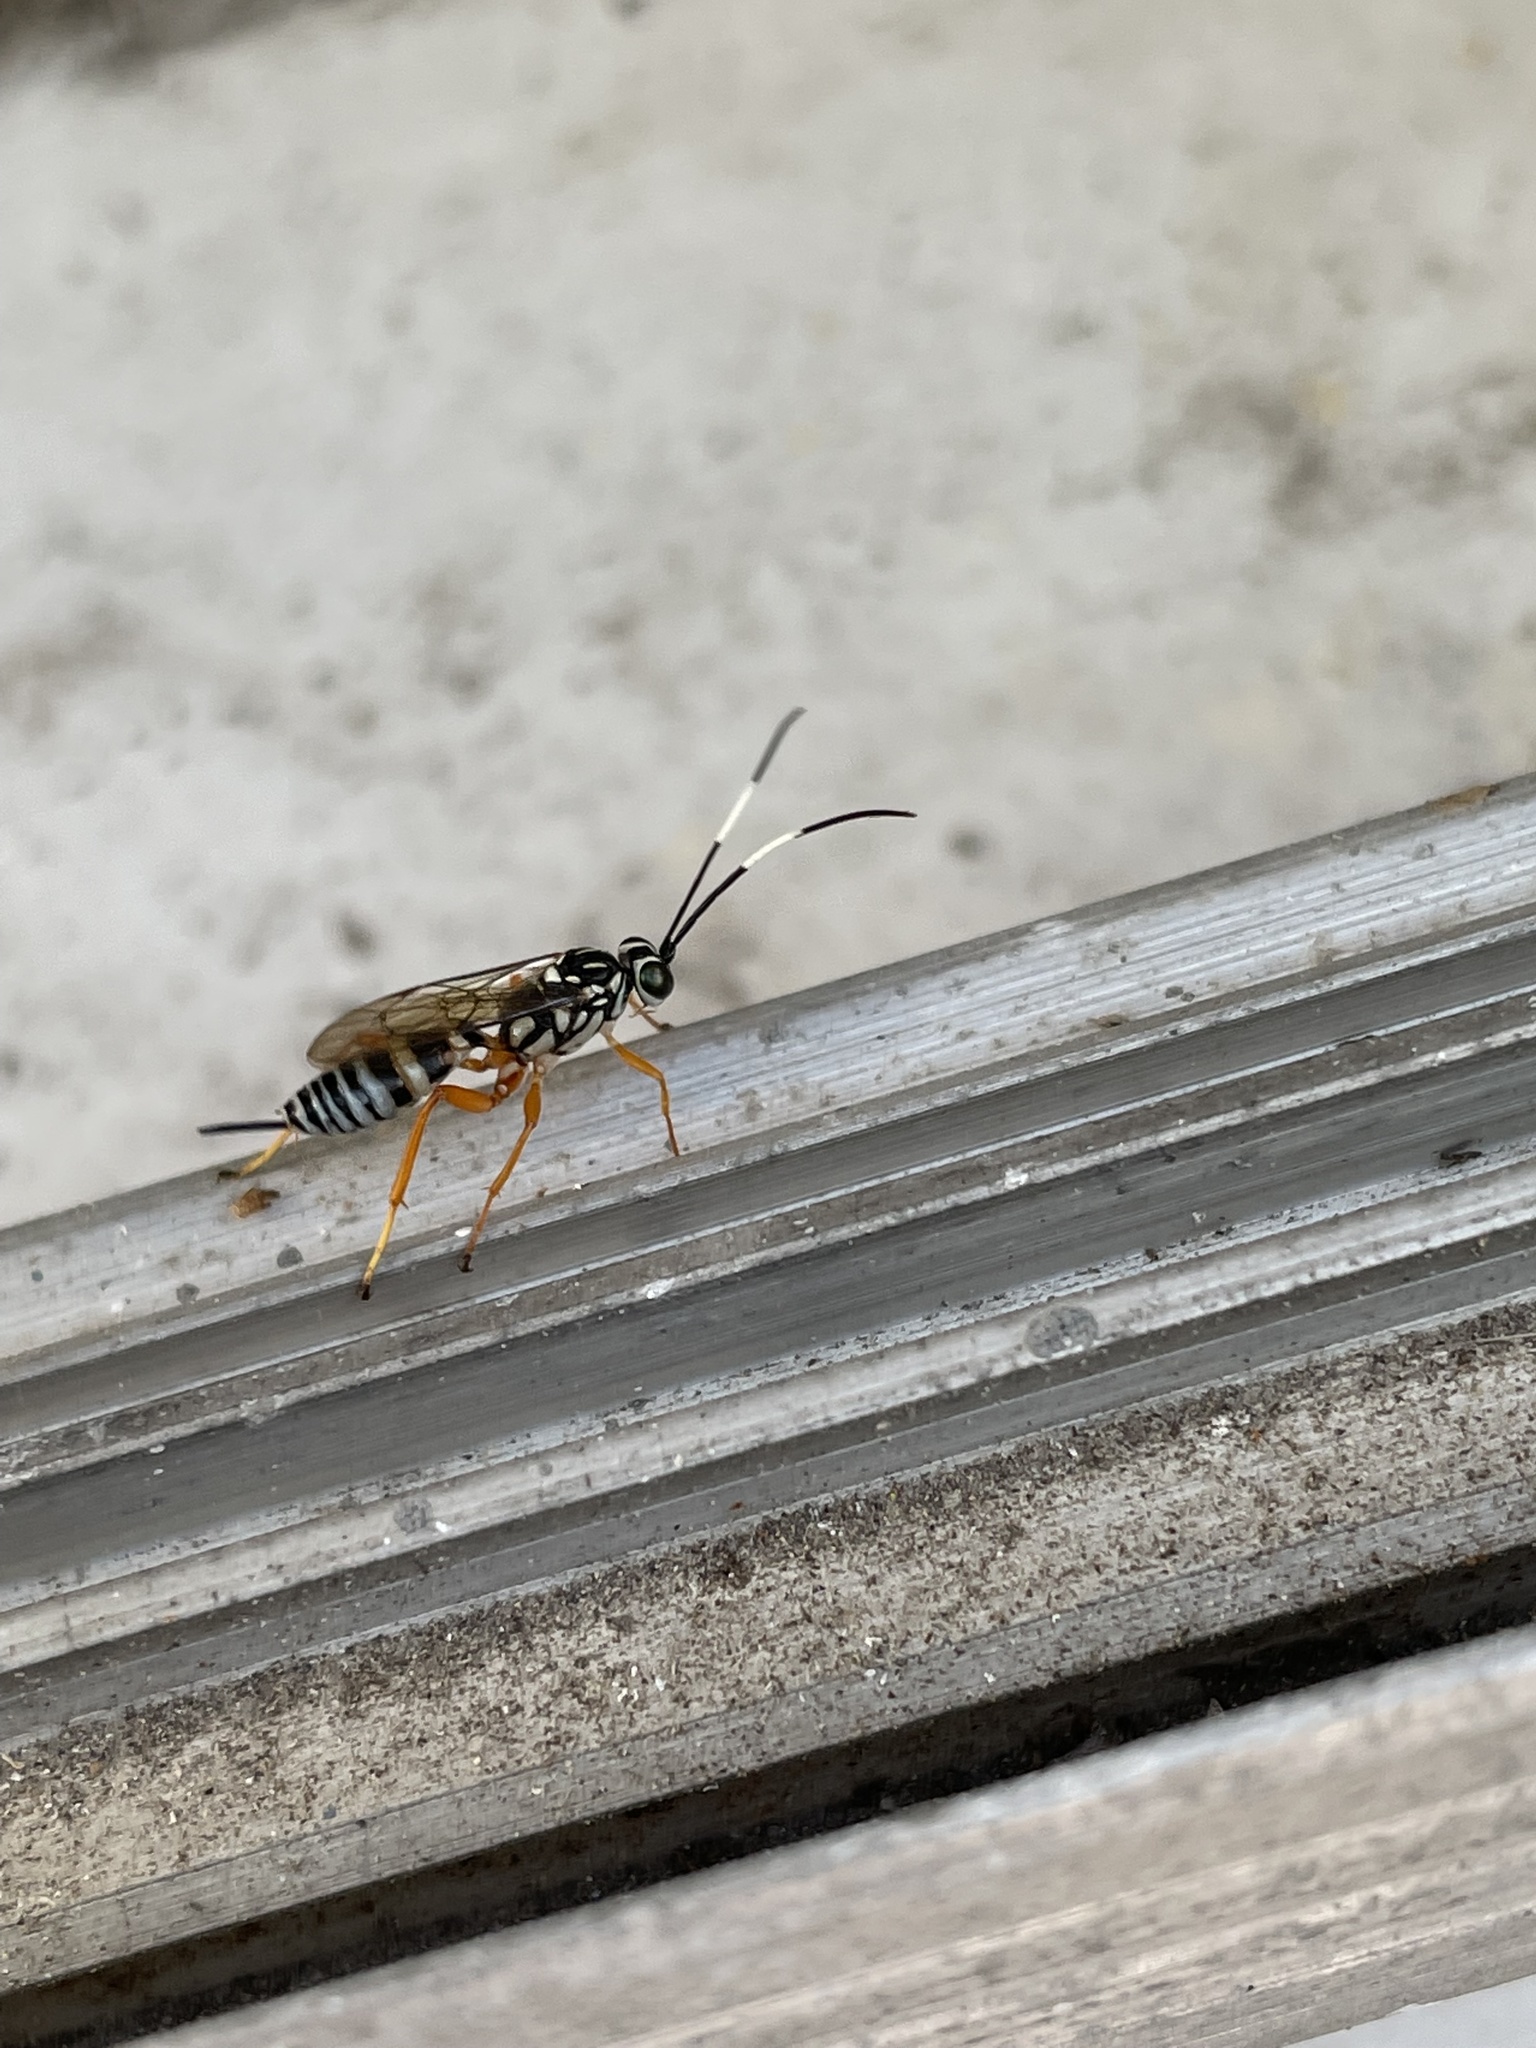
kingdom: Animalia
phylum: Arthropoda
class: Insecta
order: Hymenoptera
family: Ichneumonidae
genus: Polycyrtus
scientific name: Polycyrtus neglectus
